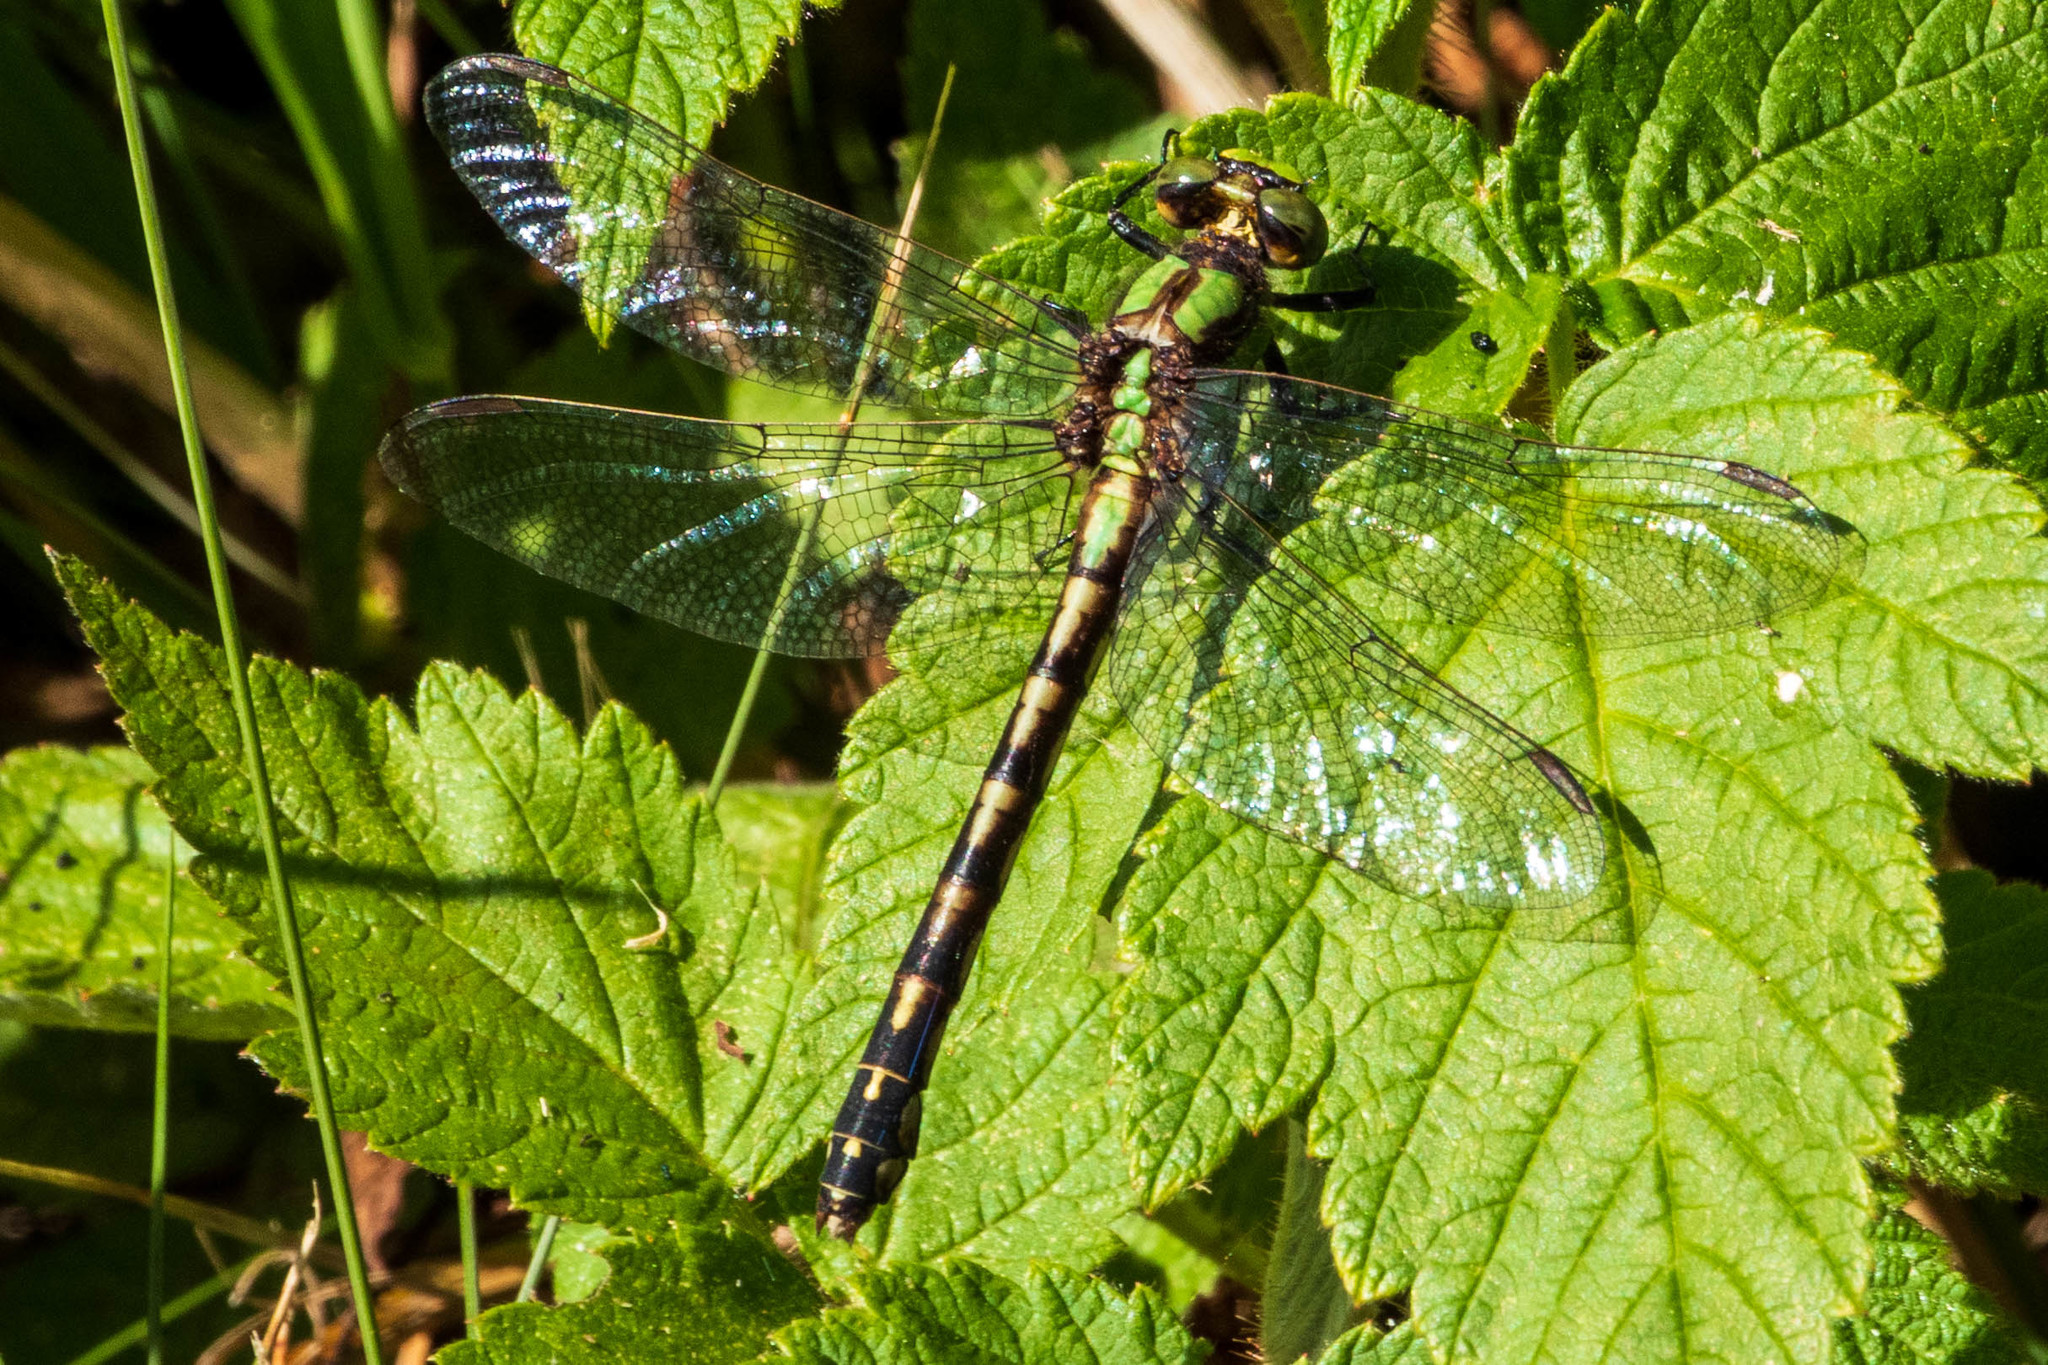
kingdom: Animalia
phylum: Arthropoda
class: Insecta
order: Odonata
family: Gomphidae
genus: Ophiogomphus
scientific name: Ophiogomphus carolus
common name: Riffle snaketail
